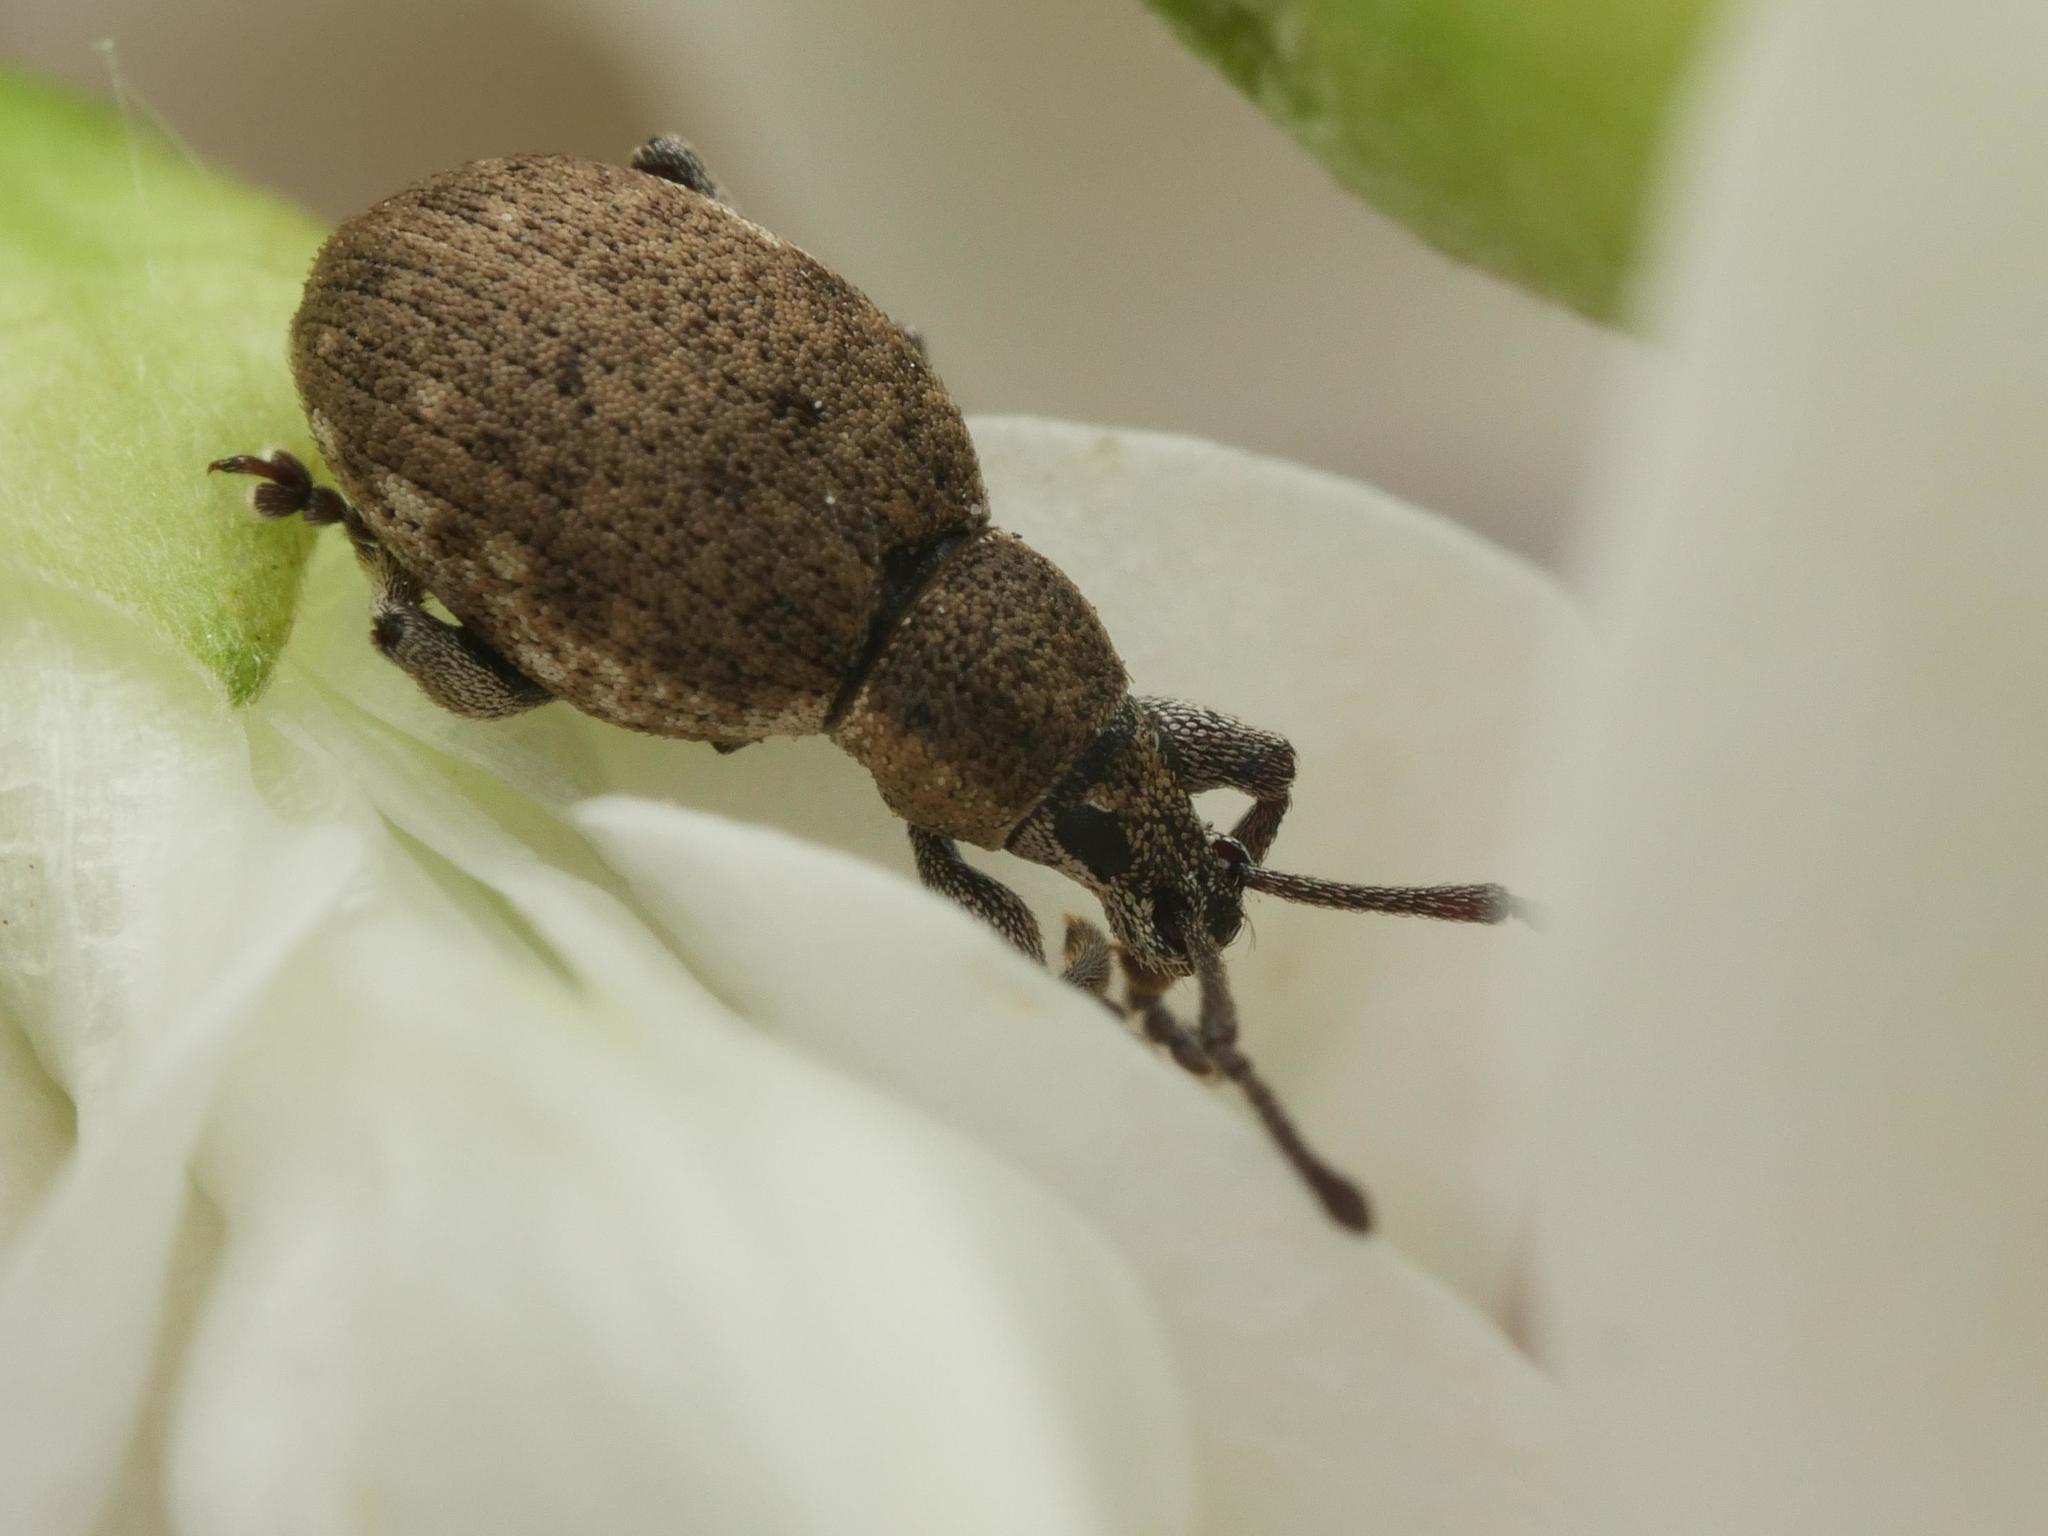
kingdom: Animalia
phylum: Arthropoda
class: Insecta
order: Coleoptera
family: Curculionidae
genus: Peritelus
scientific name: Peritelus sphaeroides
